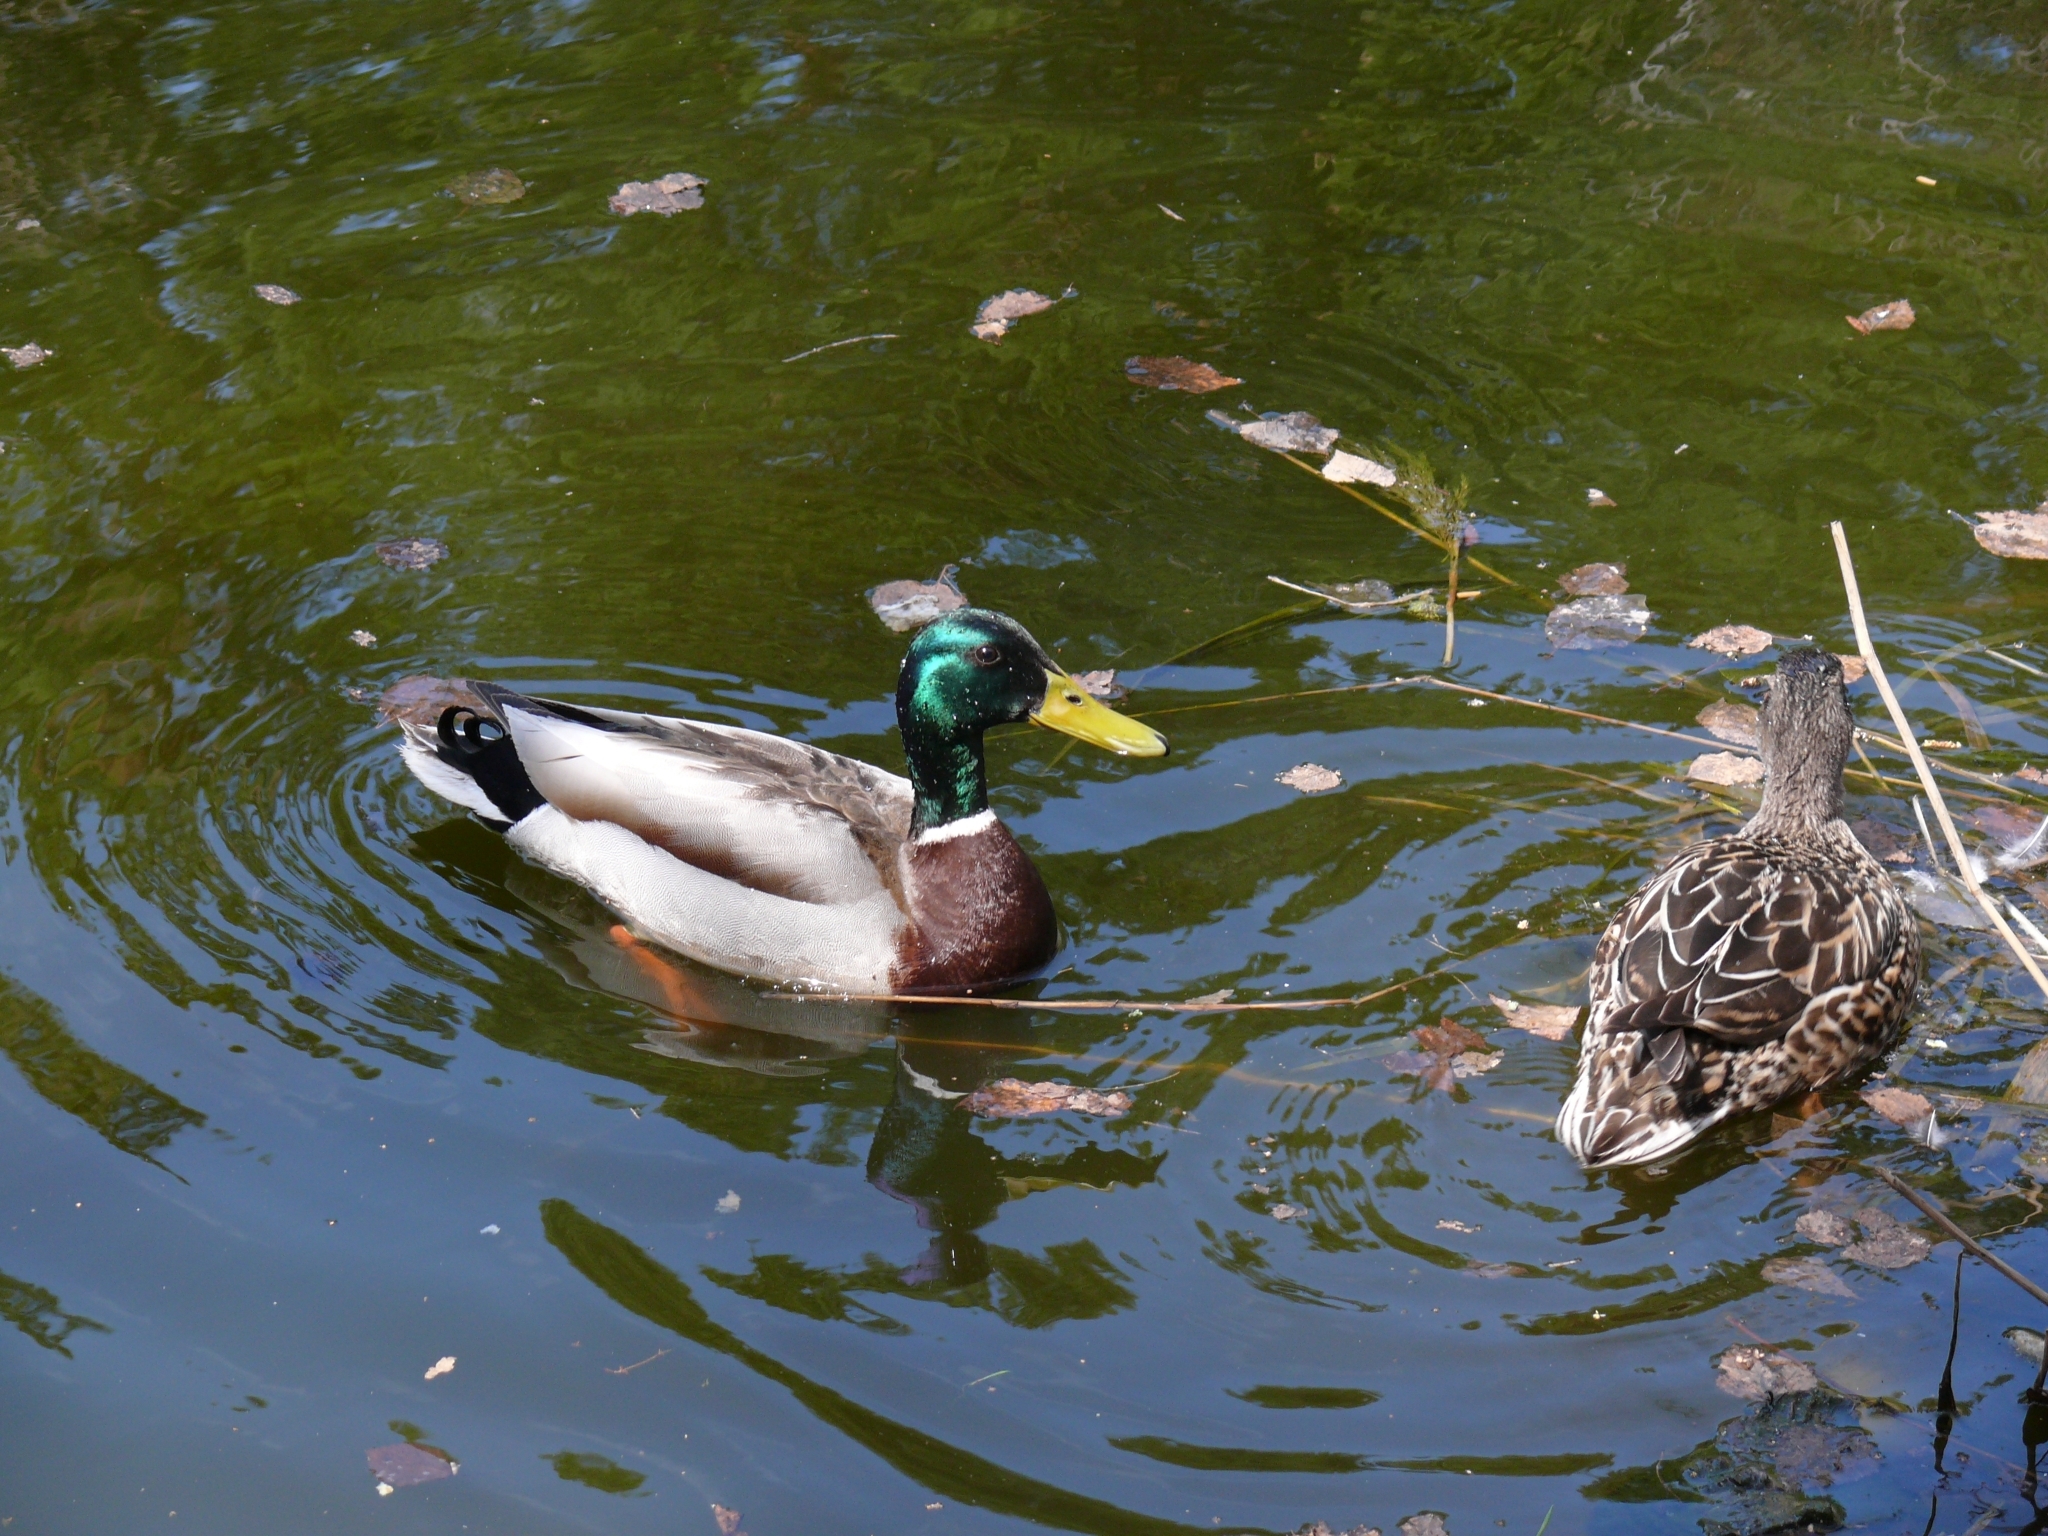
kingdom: Animalia
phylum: Chordata
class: Aves
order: Anseriformes
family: Anatidae
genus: Anas
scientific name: Anas platyrhynchos
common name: Mallard
